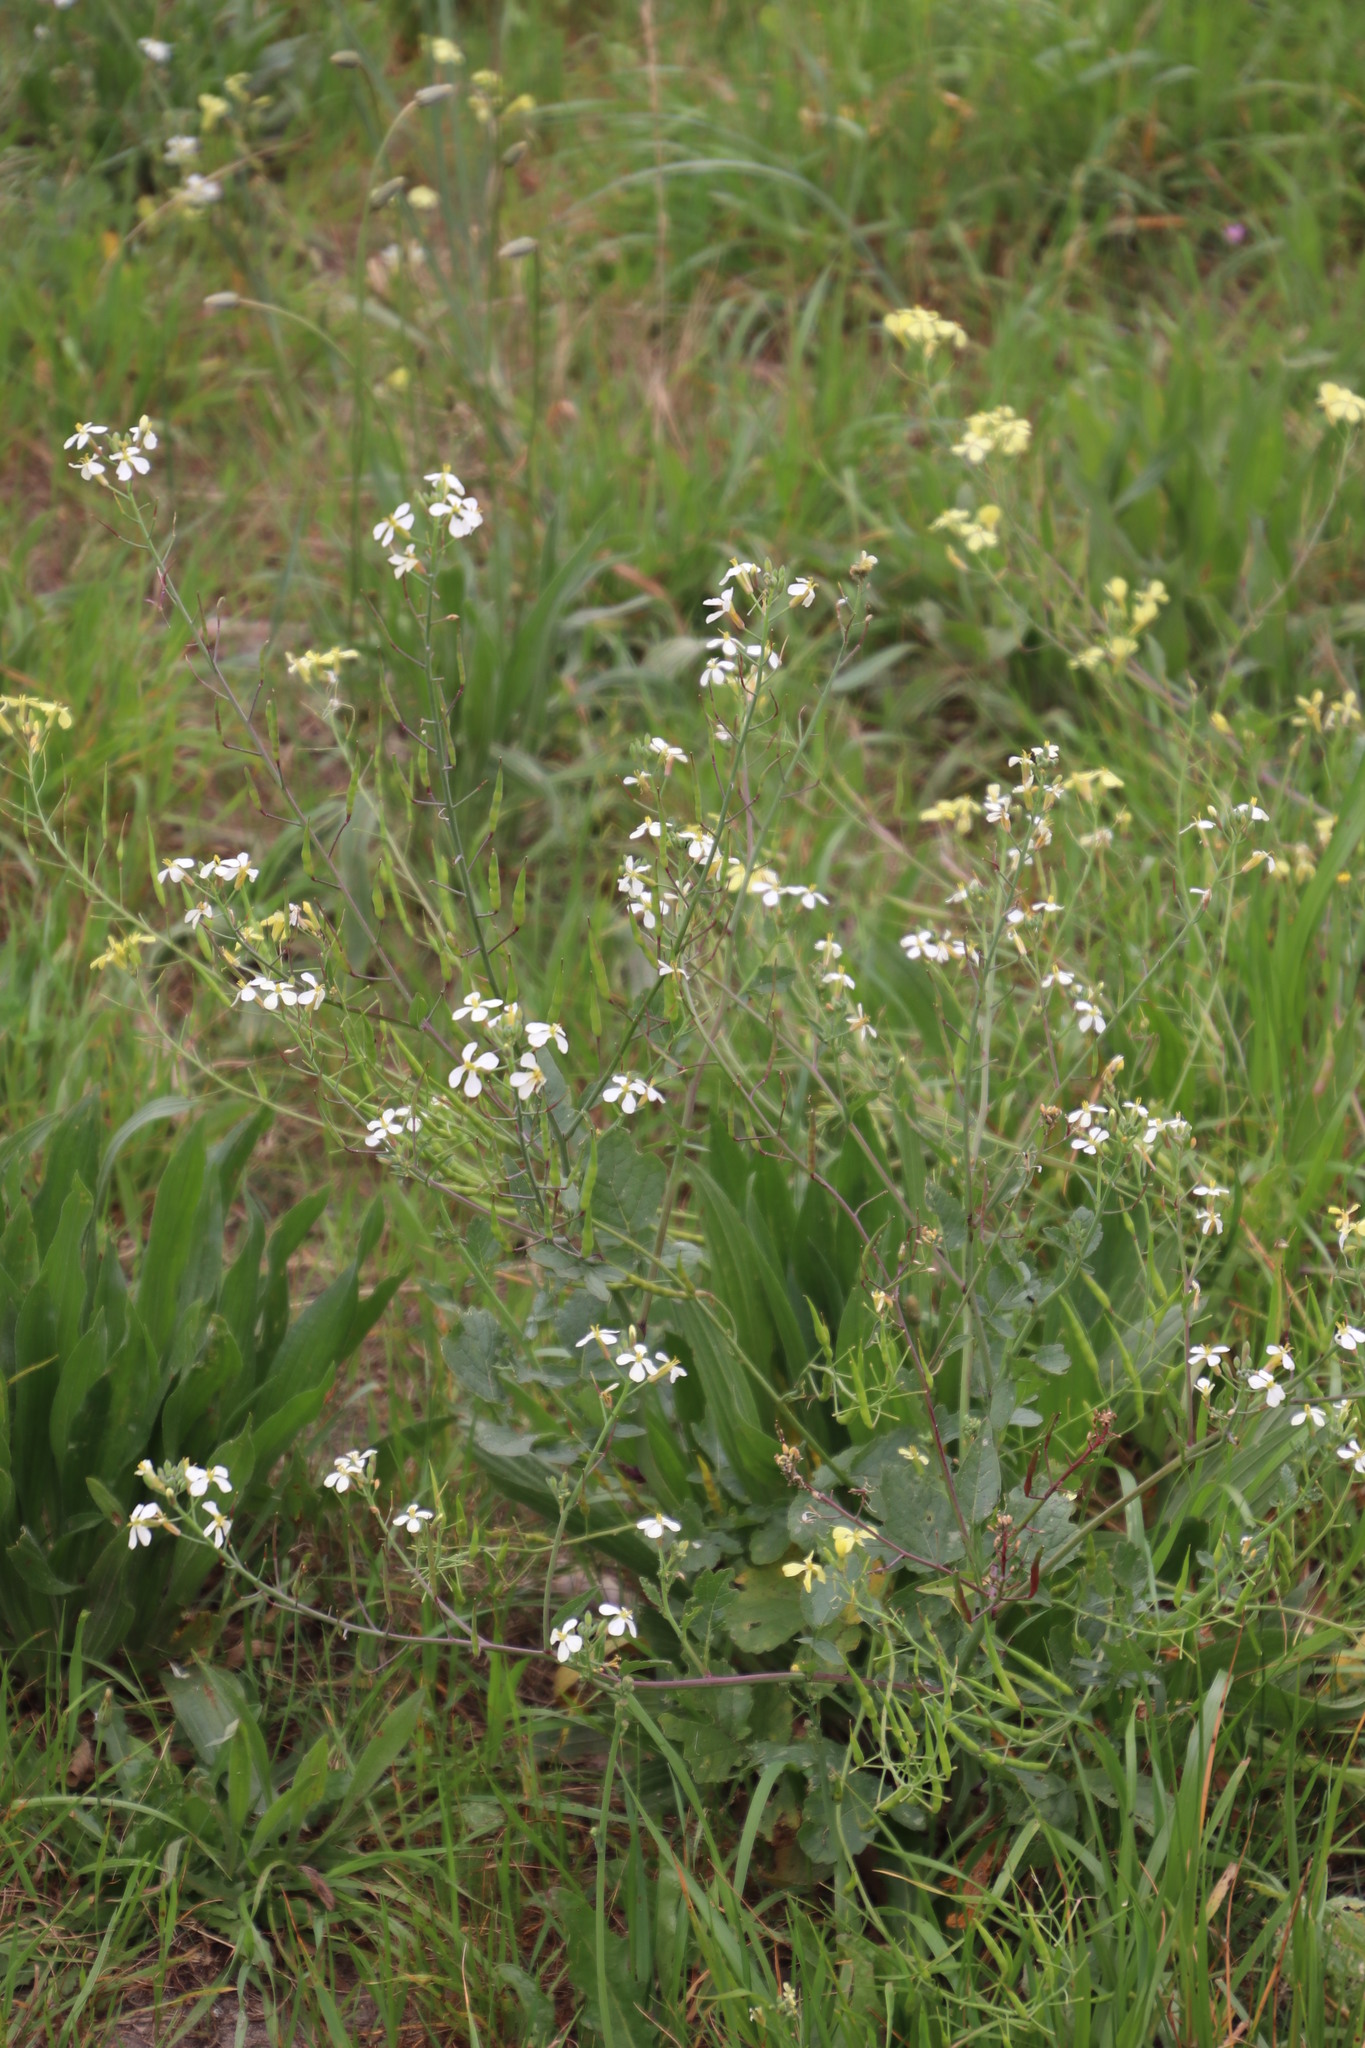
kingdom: Plantae
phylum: Tracheophyta
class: Magnoliopsida
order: Brassicales
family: Brassicaceae
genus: Raphanus
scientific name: Raphanus raphanistrum
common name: Wild radish
